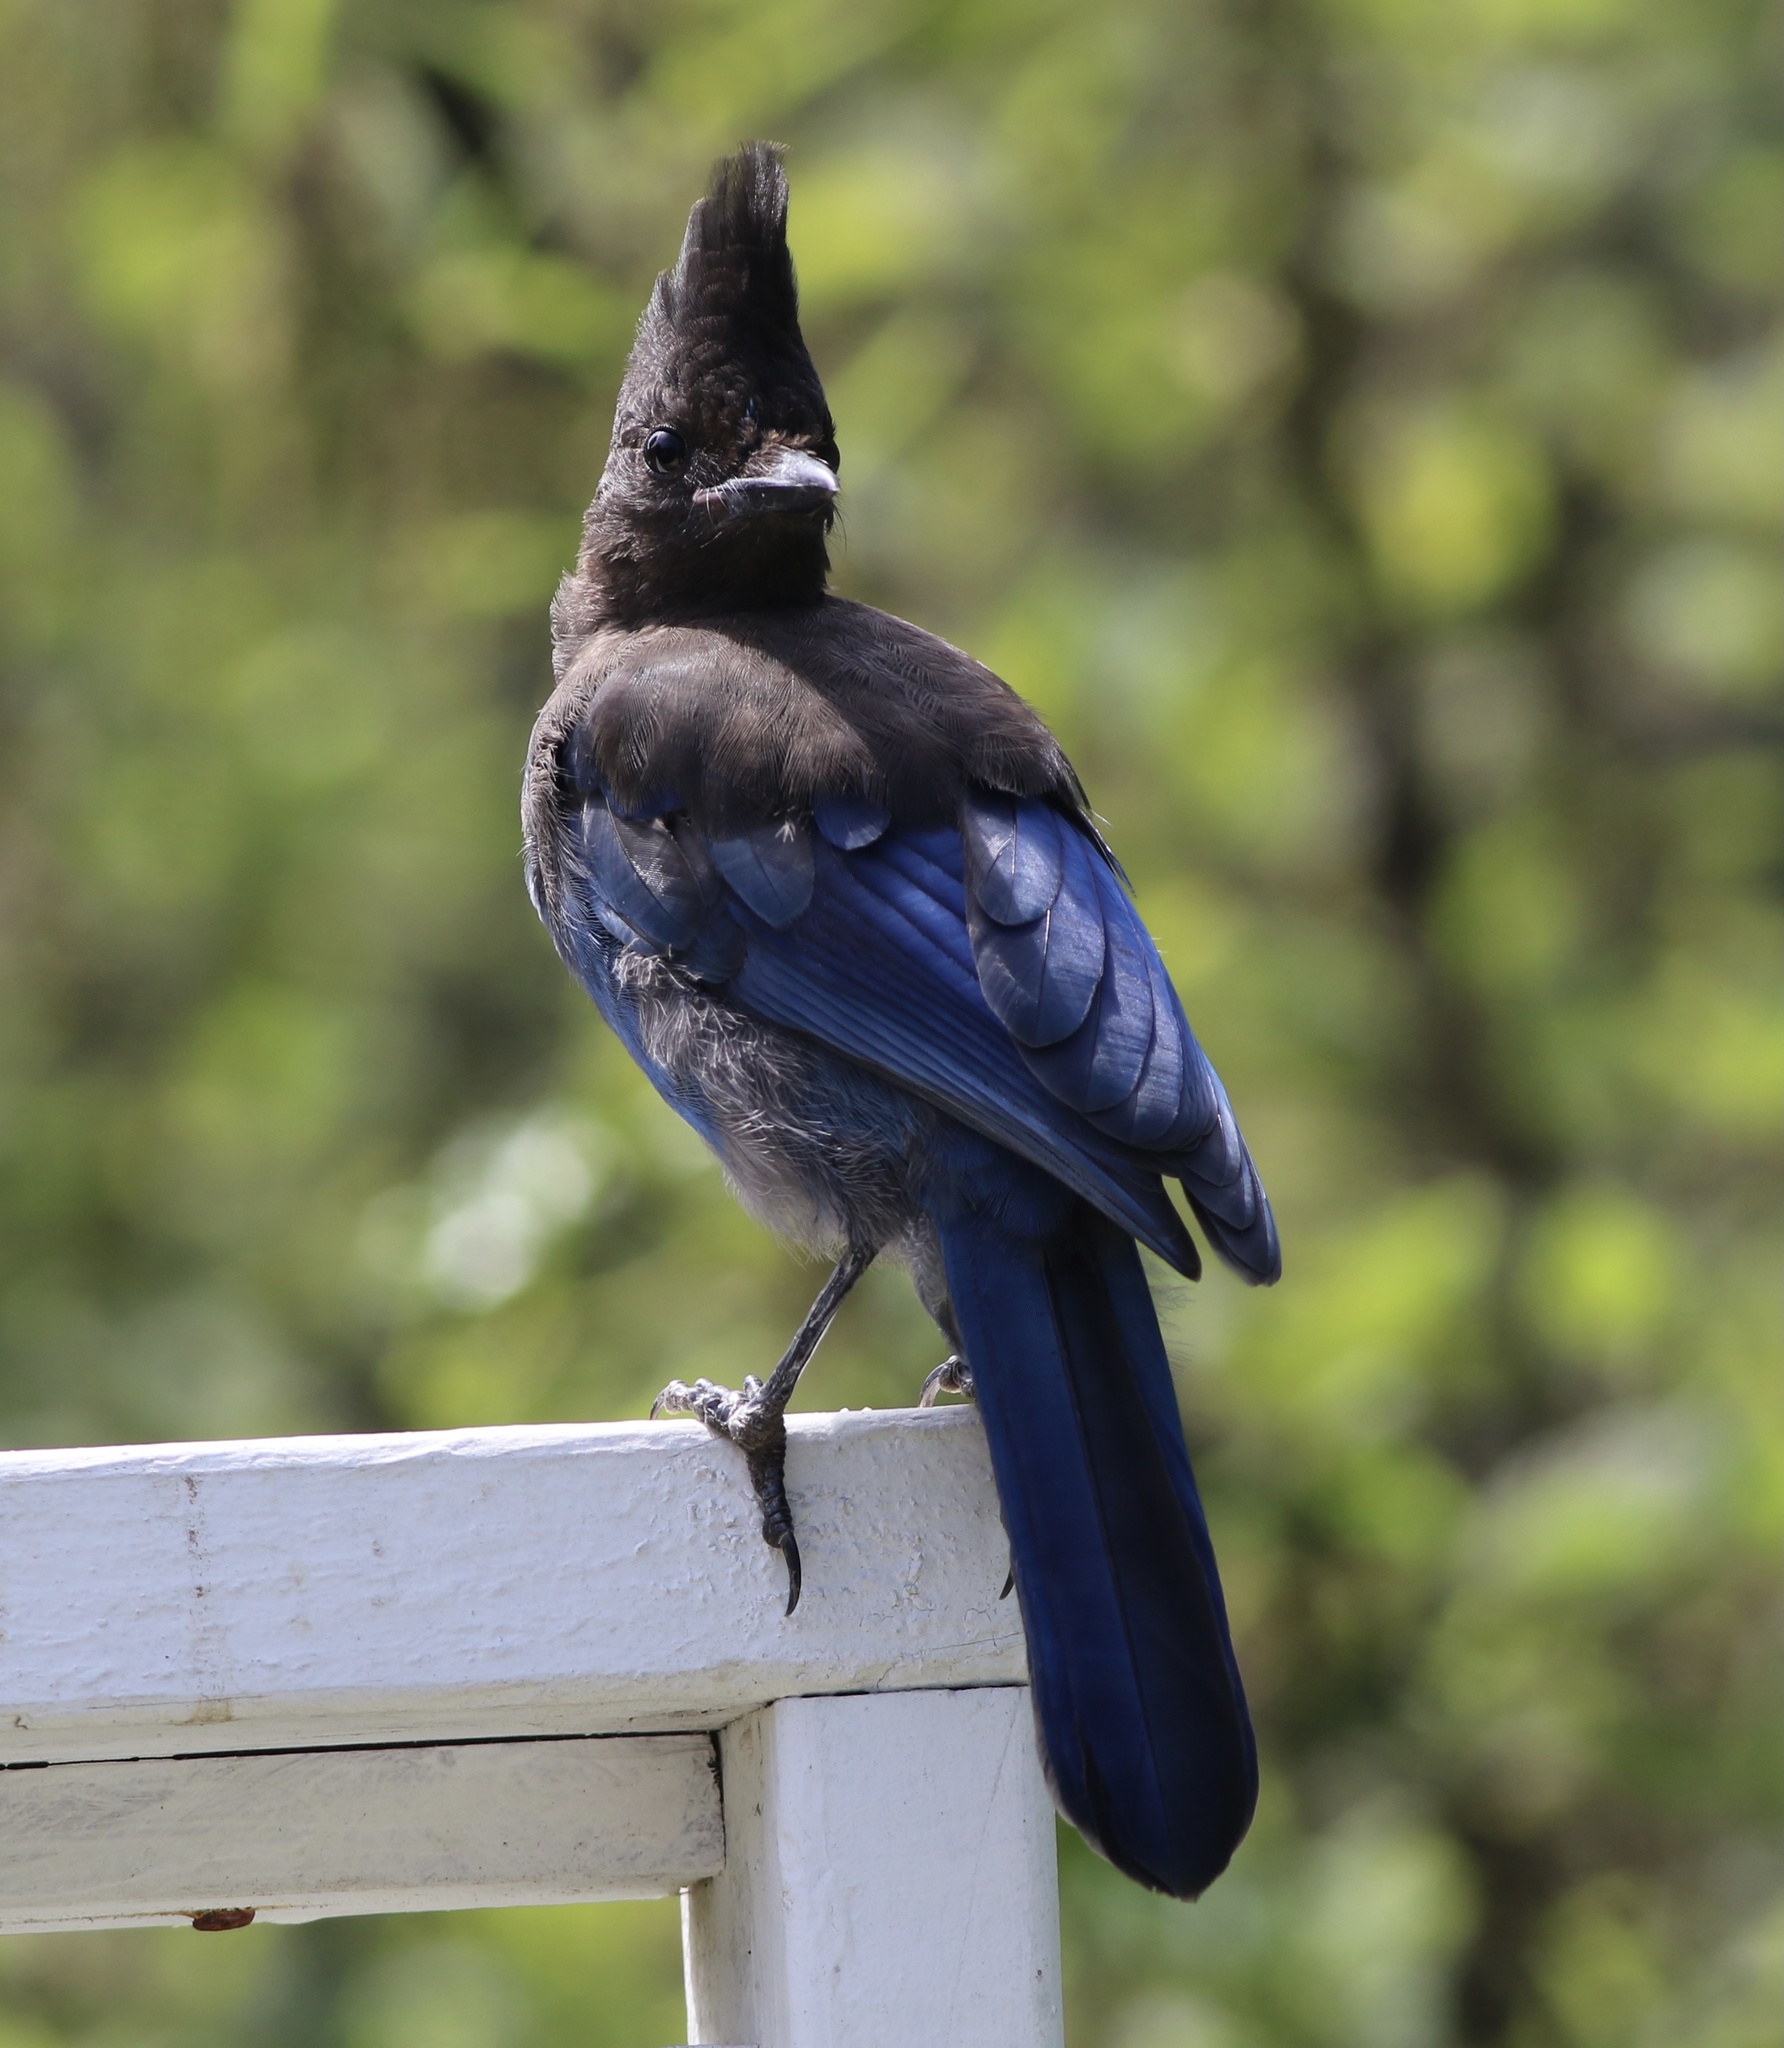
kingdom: Animalia
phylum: Chordata
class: Aves
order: Passeriformes
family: Corvidae
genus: Cyanocitta
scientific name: Cyanocitta stelleri
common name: Steller's jay
